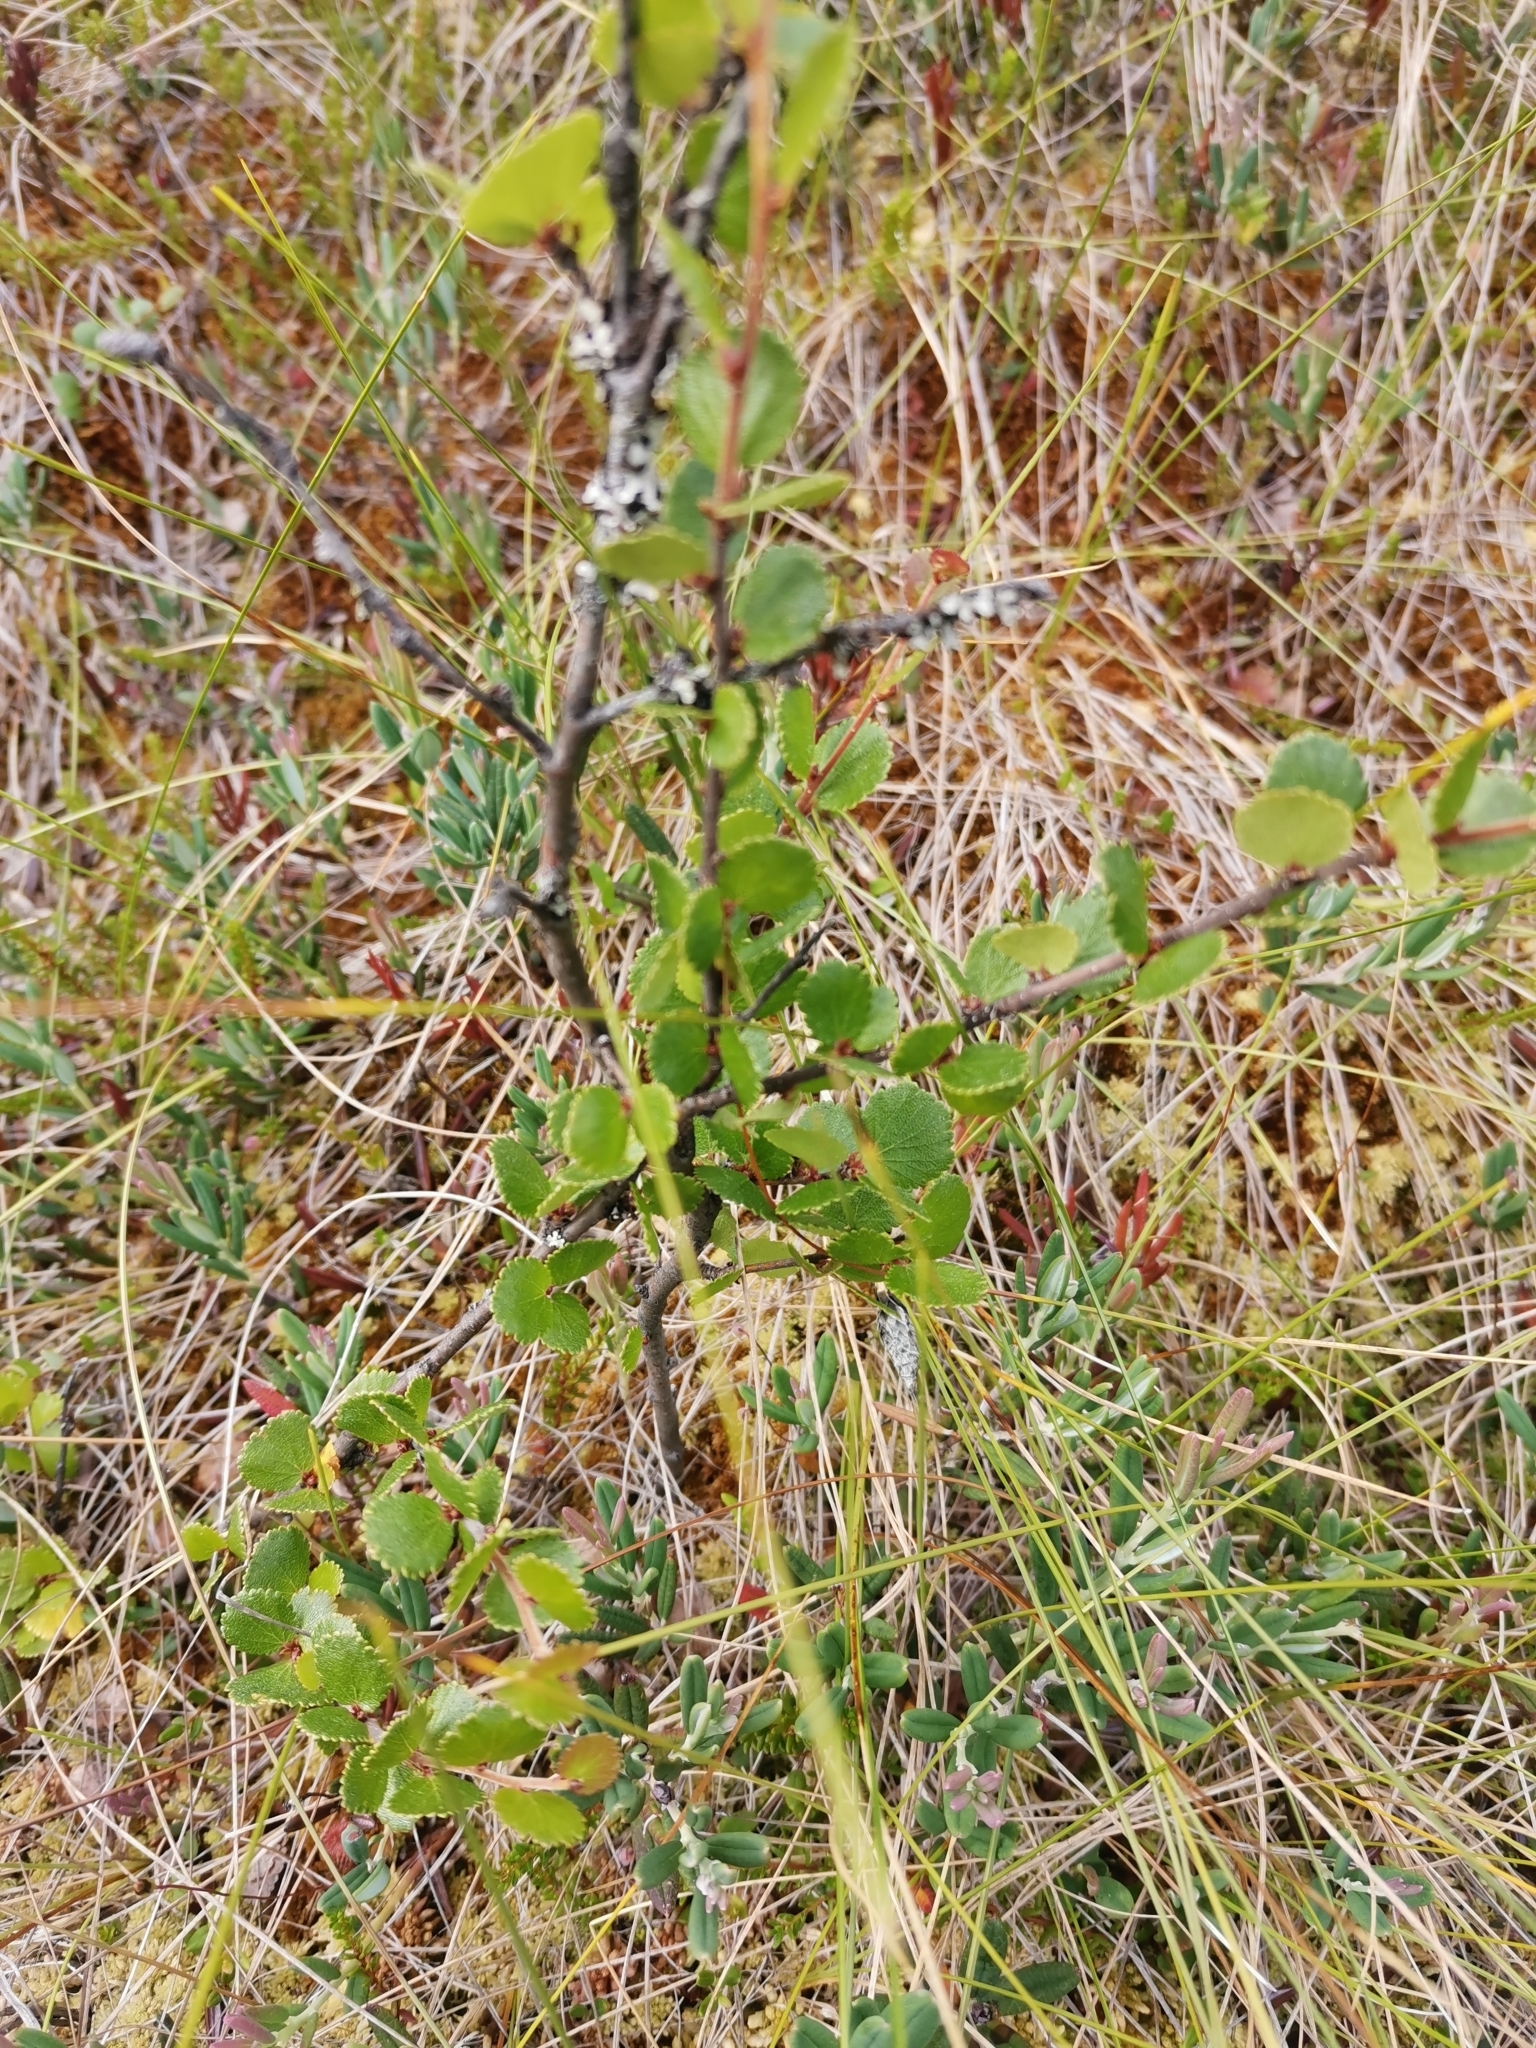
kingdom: Plantae
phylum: Tracheophyta
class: Magnoliopsida
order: Fagales
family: Betulaceae
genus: Betula
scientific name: Betula nana
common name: Arctic dwarf birch
